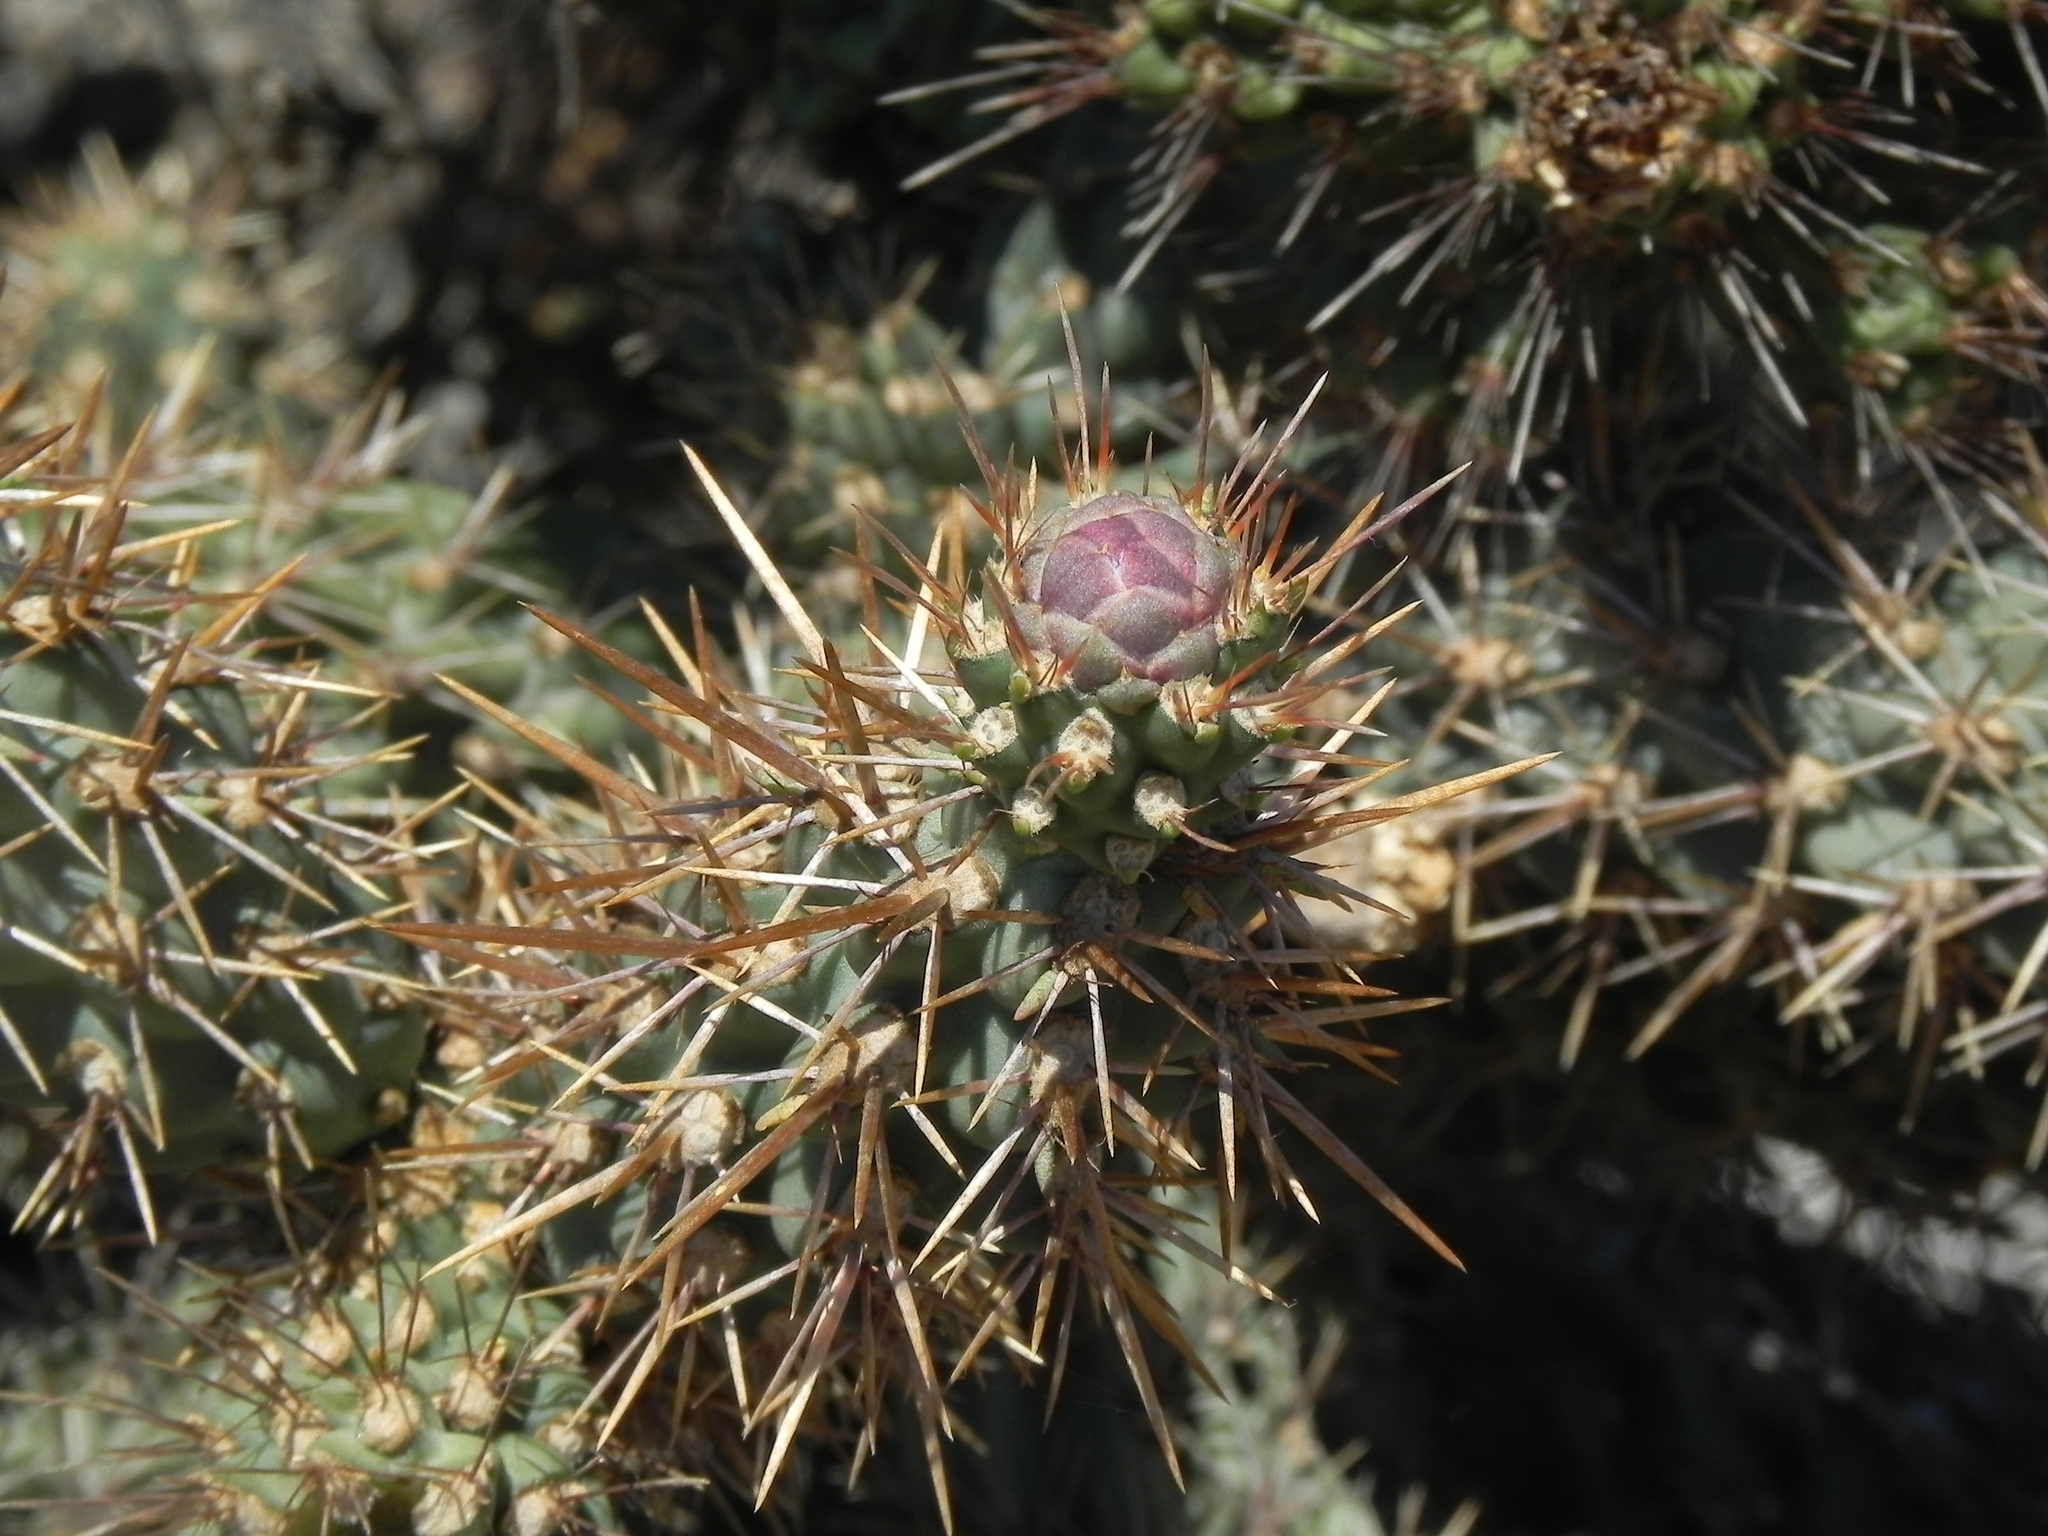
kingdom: Plantae
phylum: Tracheophyta
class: Magnoliopsida
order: Caryophyllales
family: Cactaceae
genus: Cylindropuntia
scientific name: Cylindropuntia prolifera
